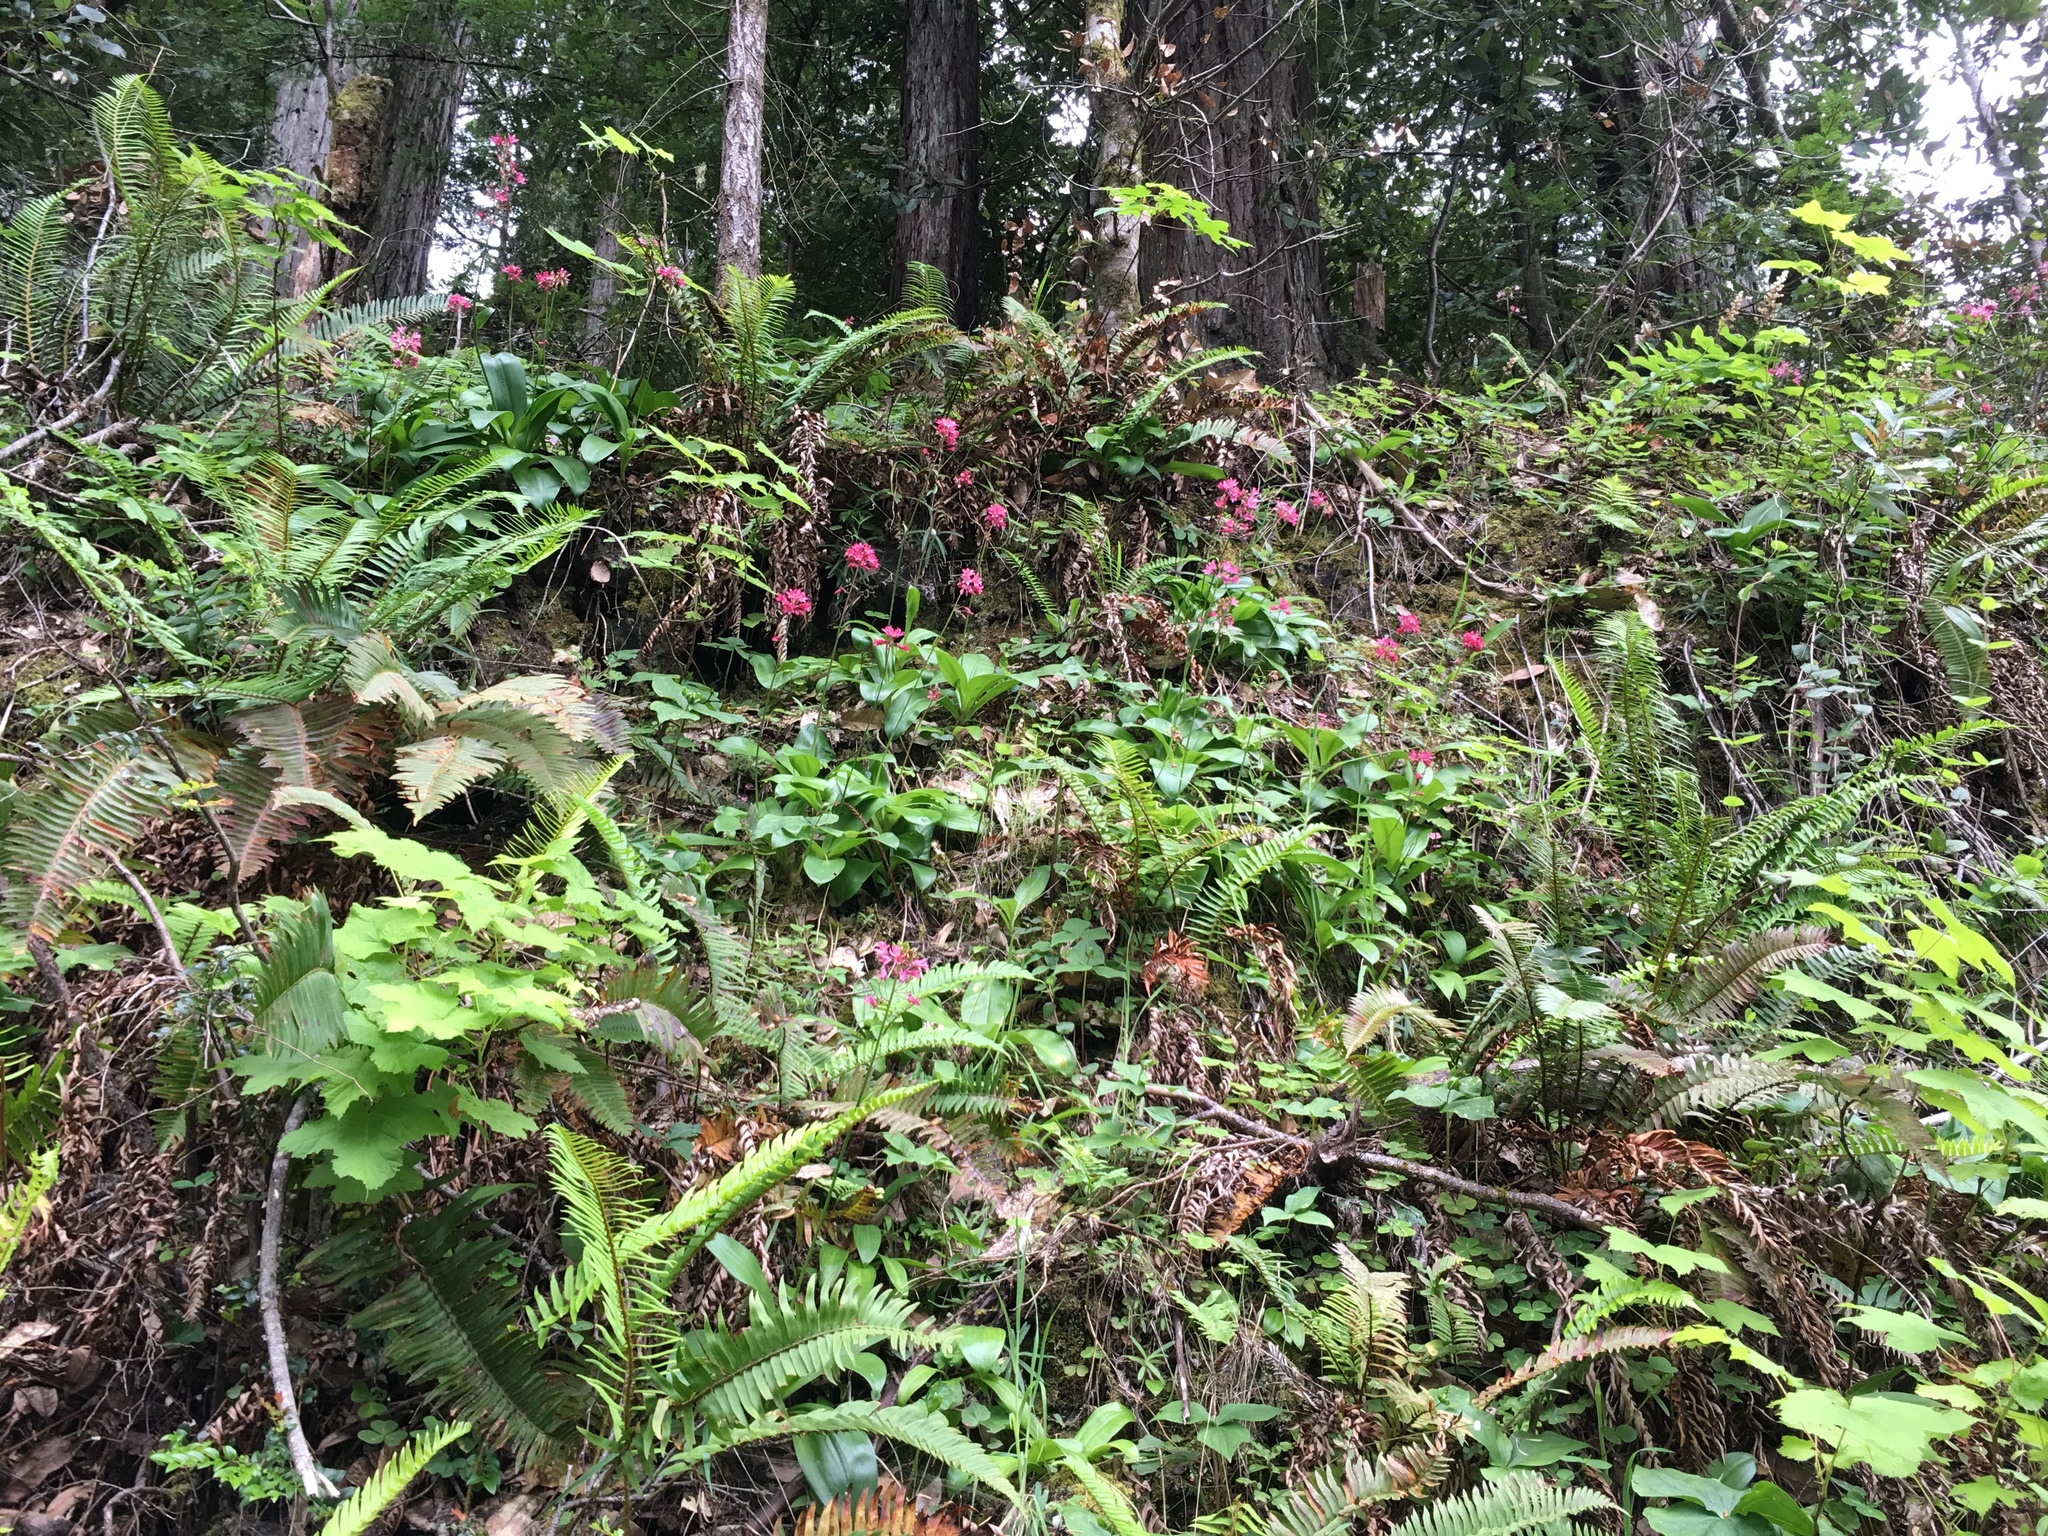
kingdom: Plantae
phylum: Tracheophyta
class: Liliopsida
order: Liliales
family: Liliaceae
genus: Clintonia
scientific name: Clintonia andrewsiana
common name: Red clintonia
